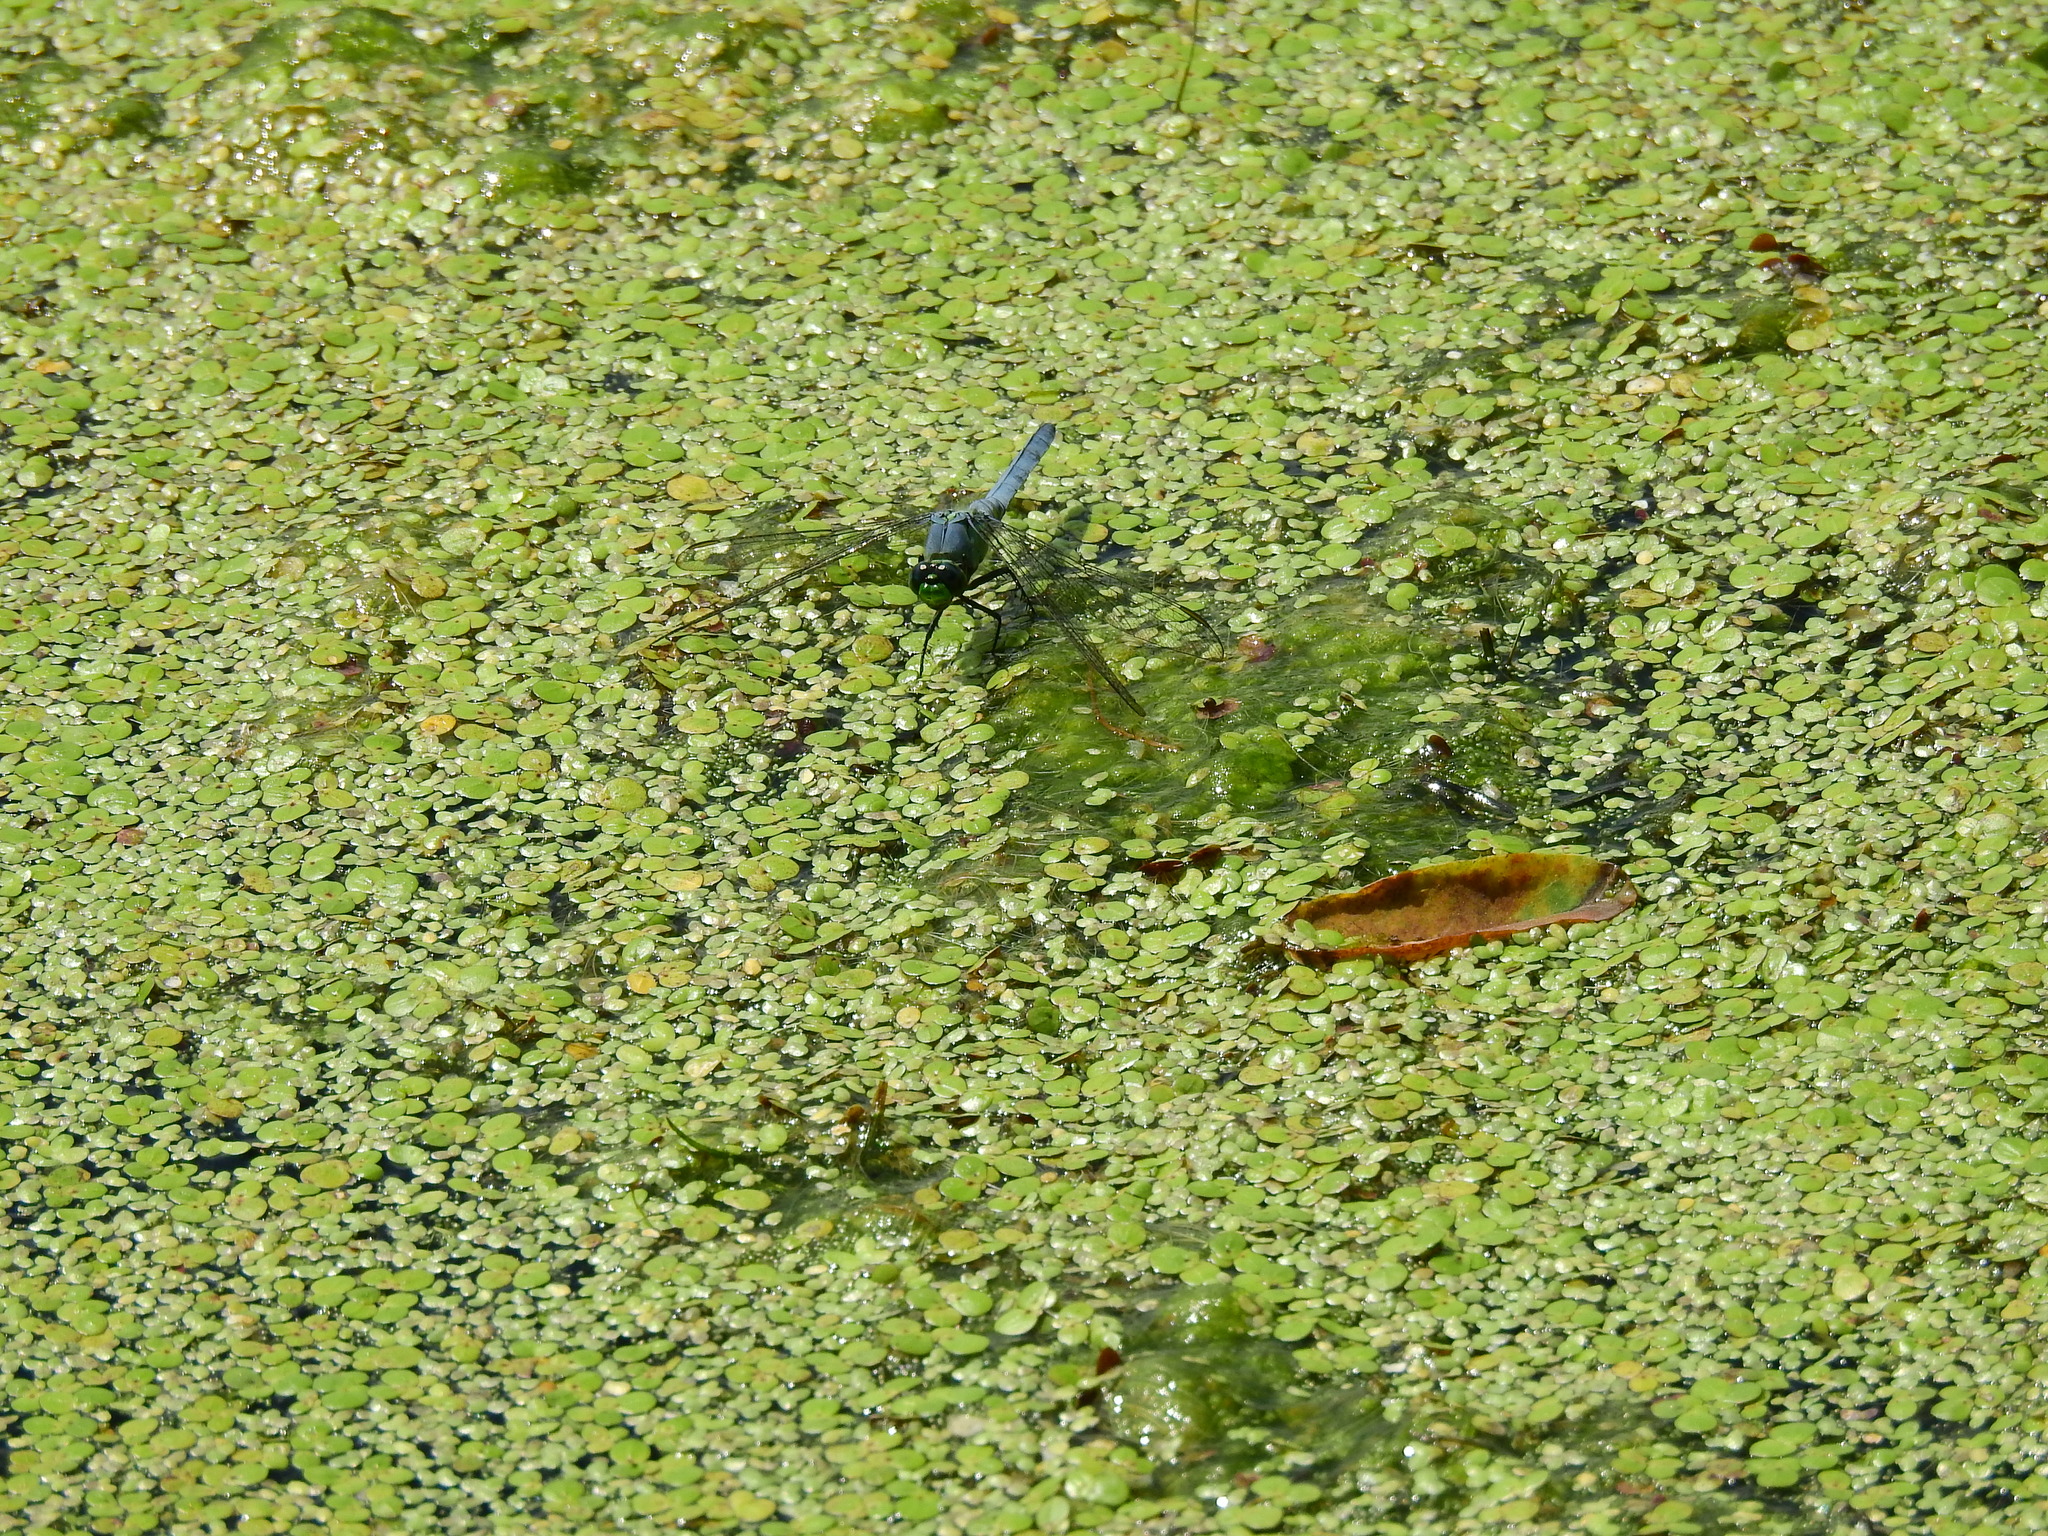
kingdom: Animalia
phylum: Arthropoda
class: Insecta
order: Odonata
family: Libellulidae
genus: Erythemis
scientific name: Erythemis simplicicollis
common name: Eastern pondhawk
